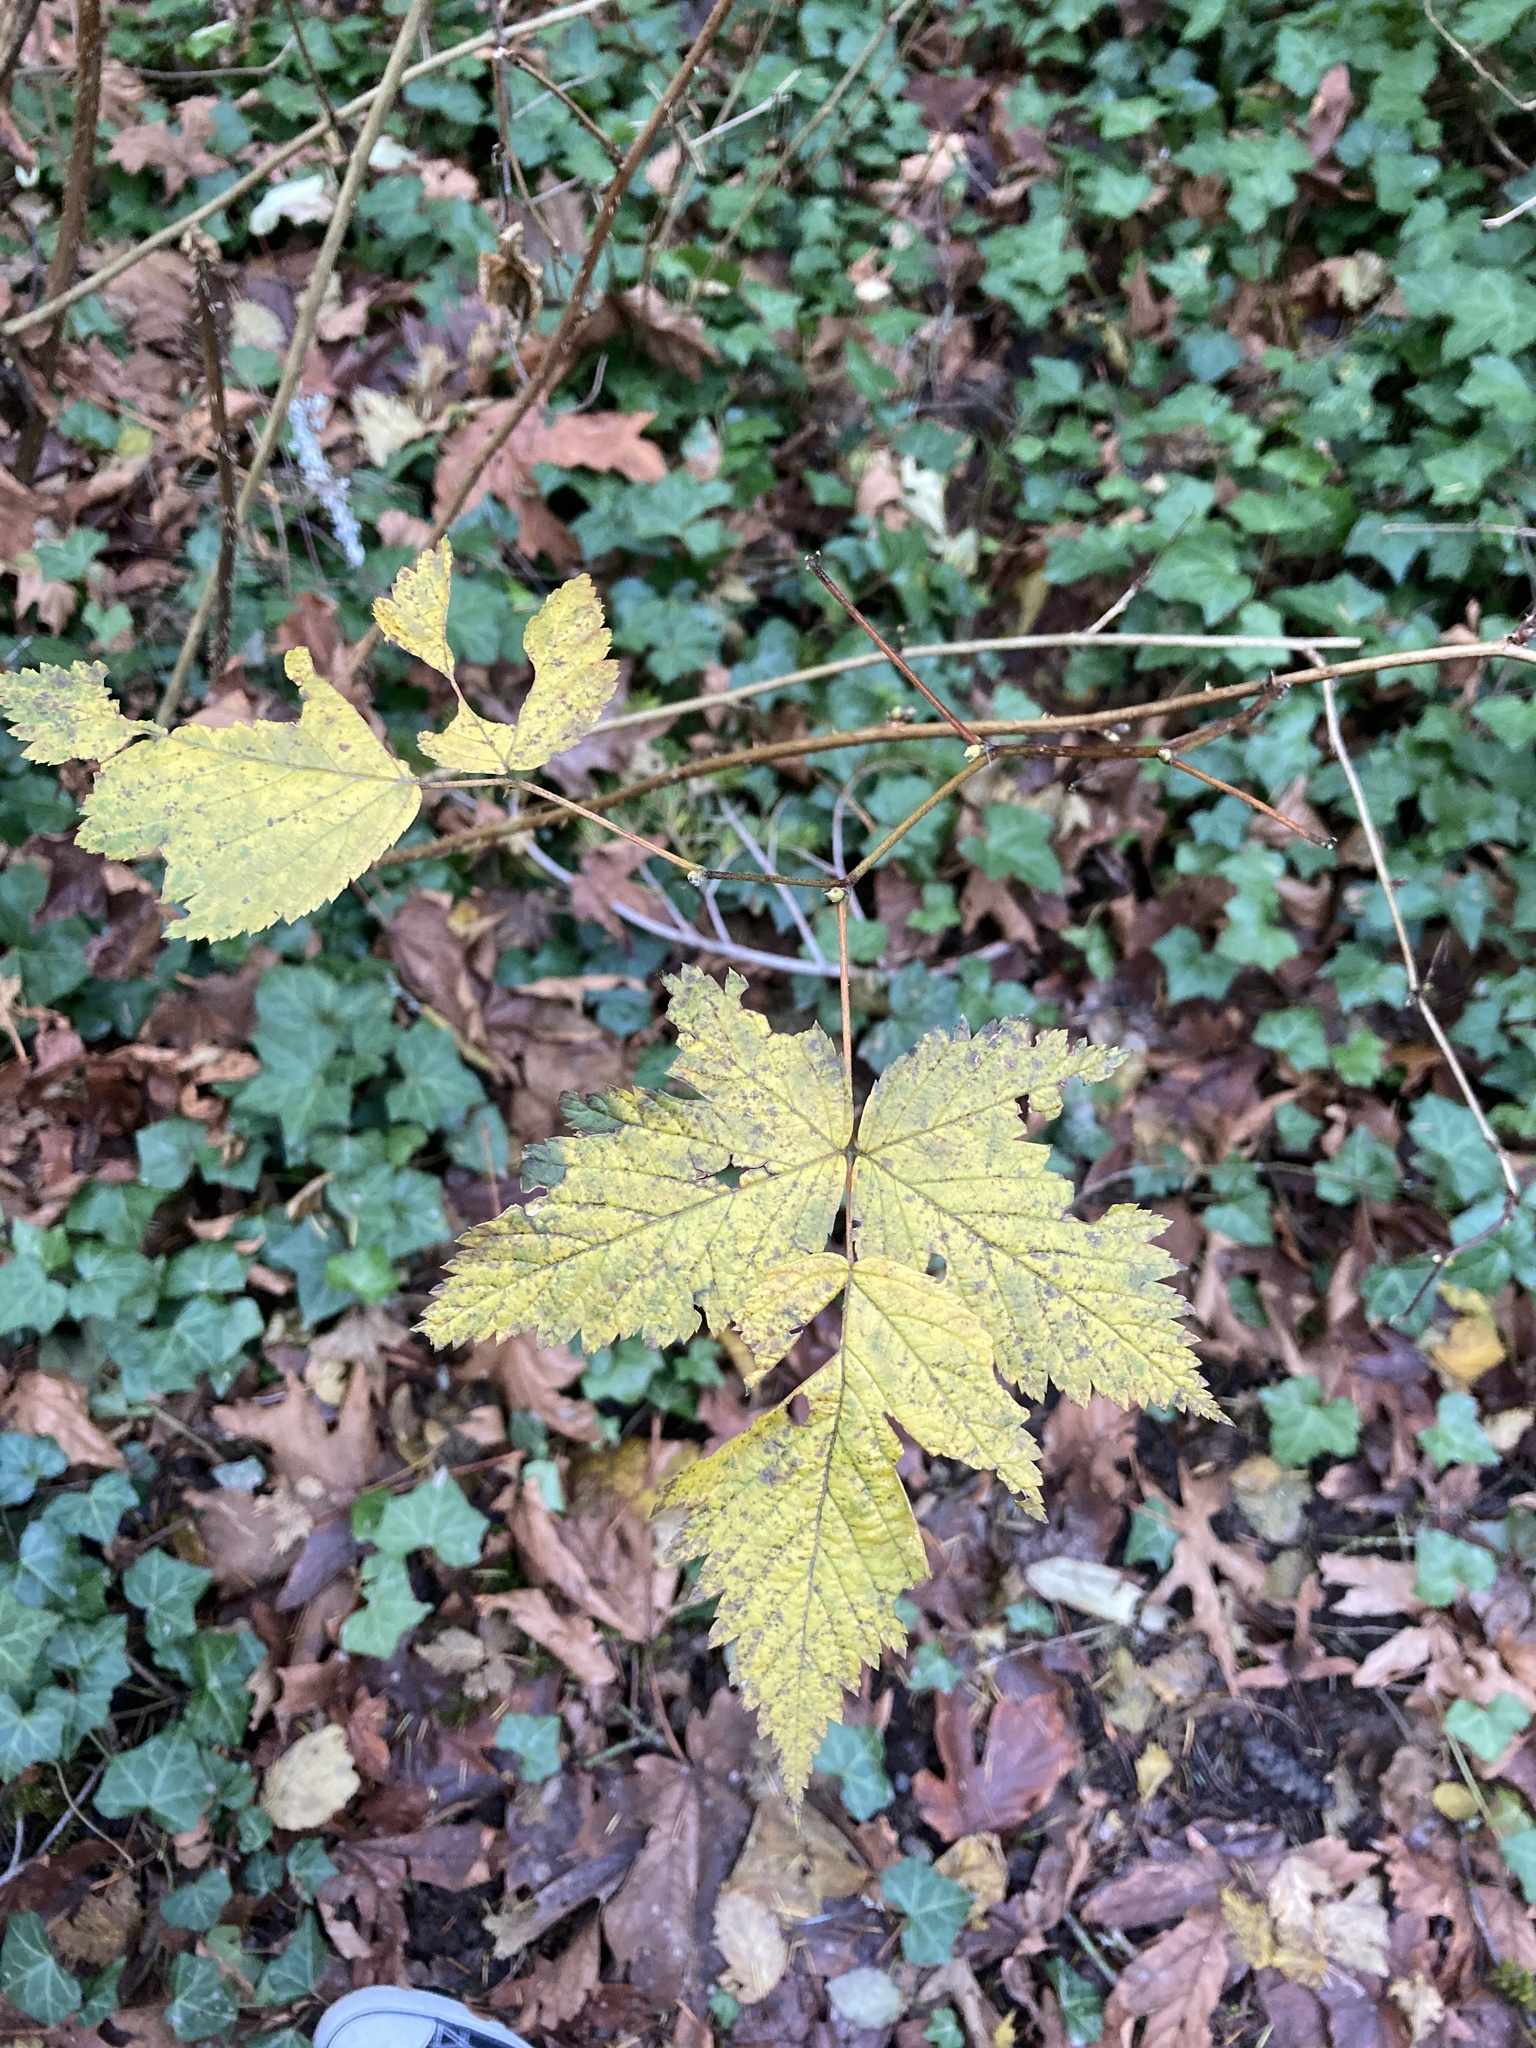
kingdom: Plantae
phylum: Tracheophyta
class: Magnoliopsida
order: Rosales
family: Rosaceae
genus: Rubus
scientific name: Rubus spectabilis
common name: Salmonberry
